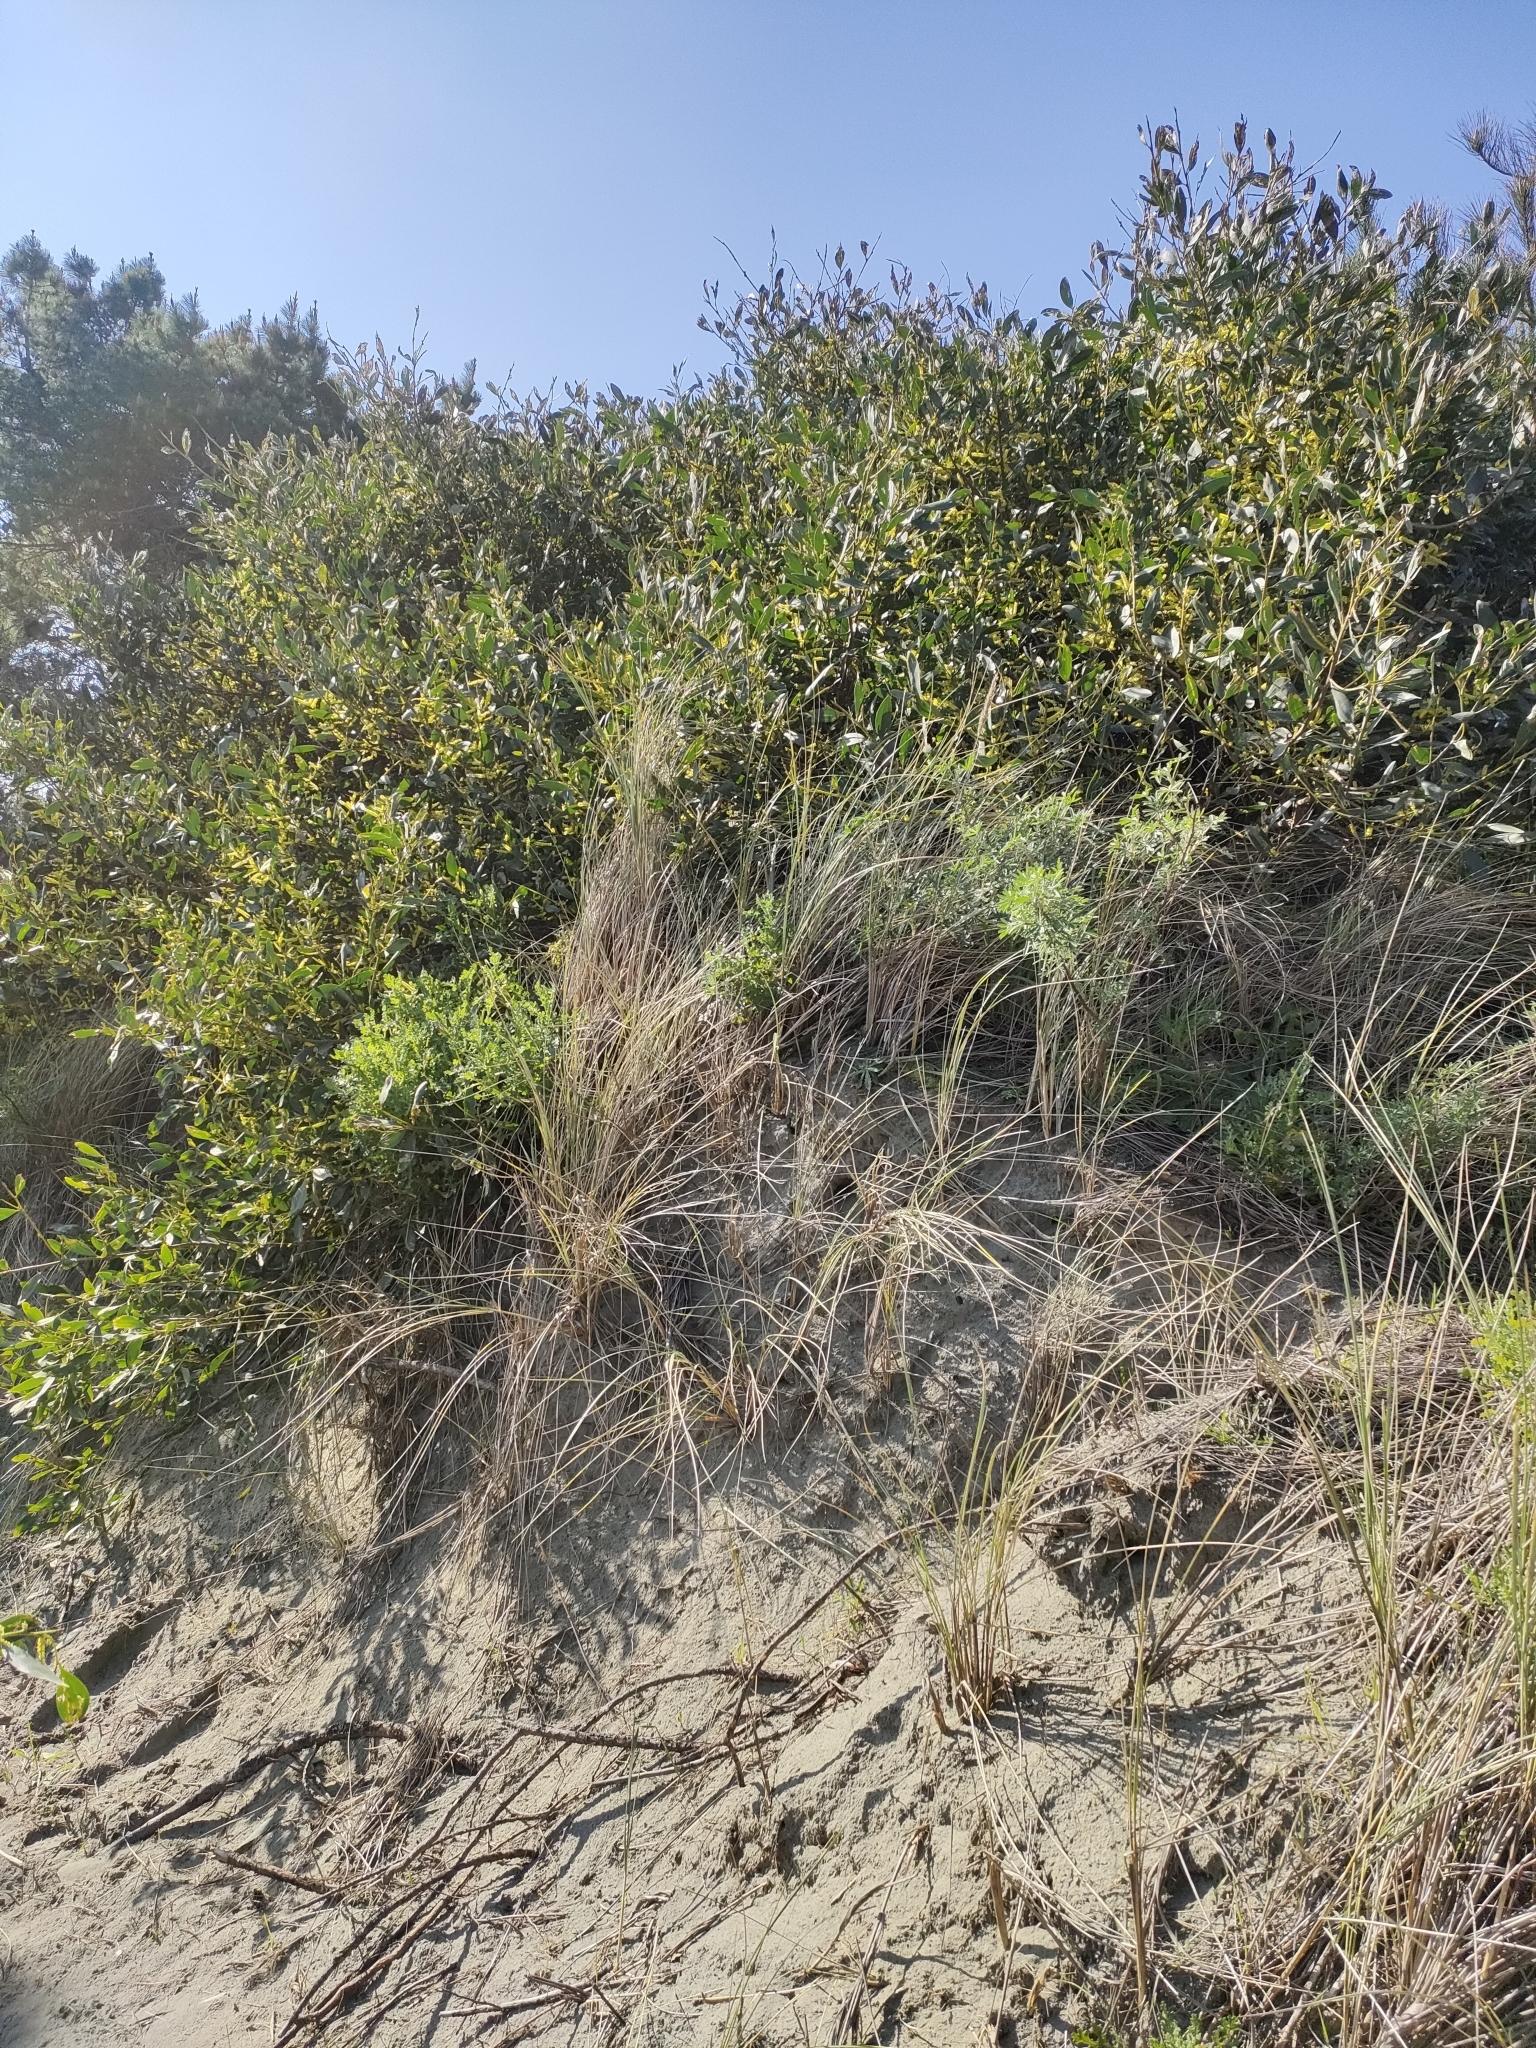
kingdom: Plantae
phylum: Tracheophyta
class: Magnoliopsida
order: Fabales
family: Fabaceae
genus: Acacia
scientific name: Acacia longifolia
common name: Sydney golden wattle
